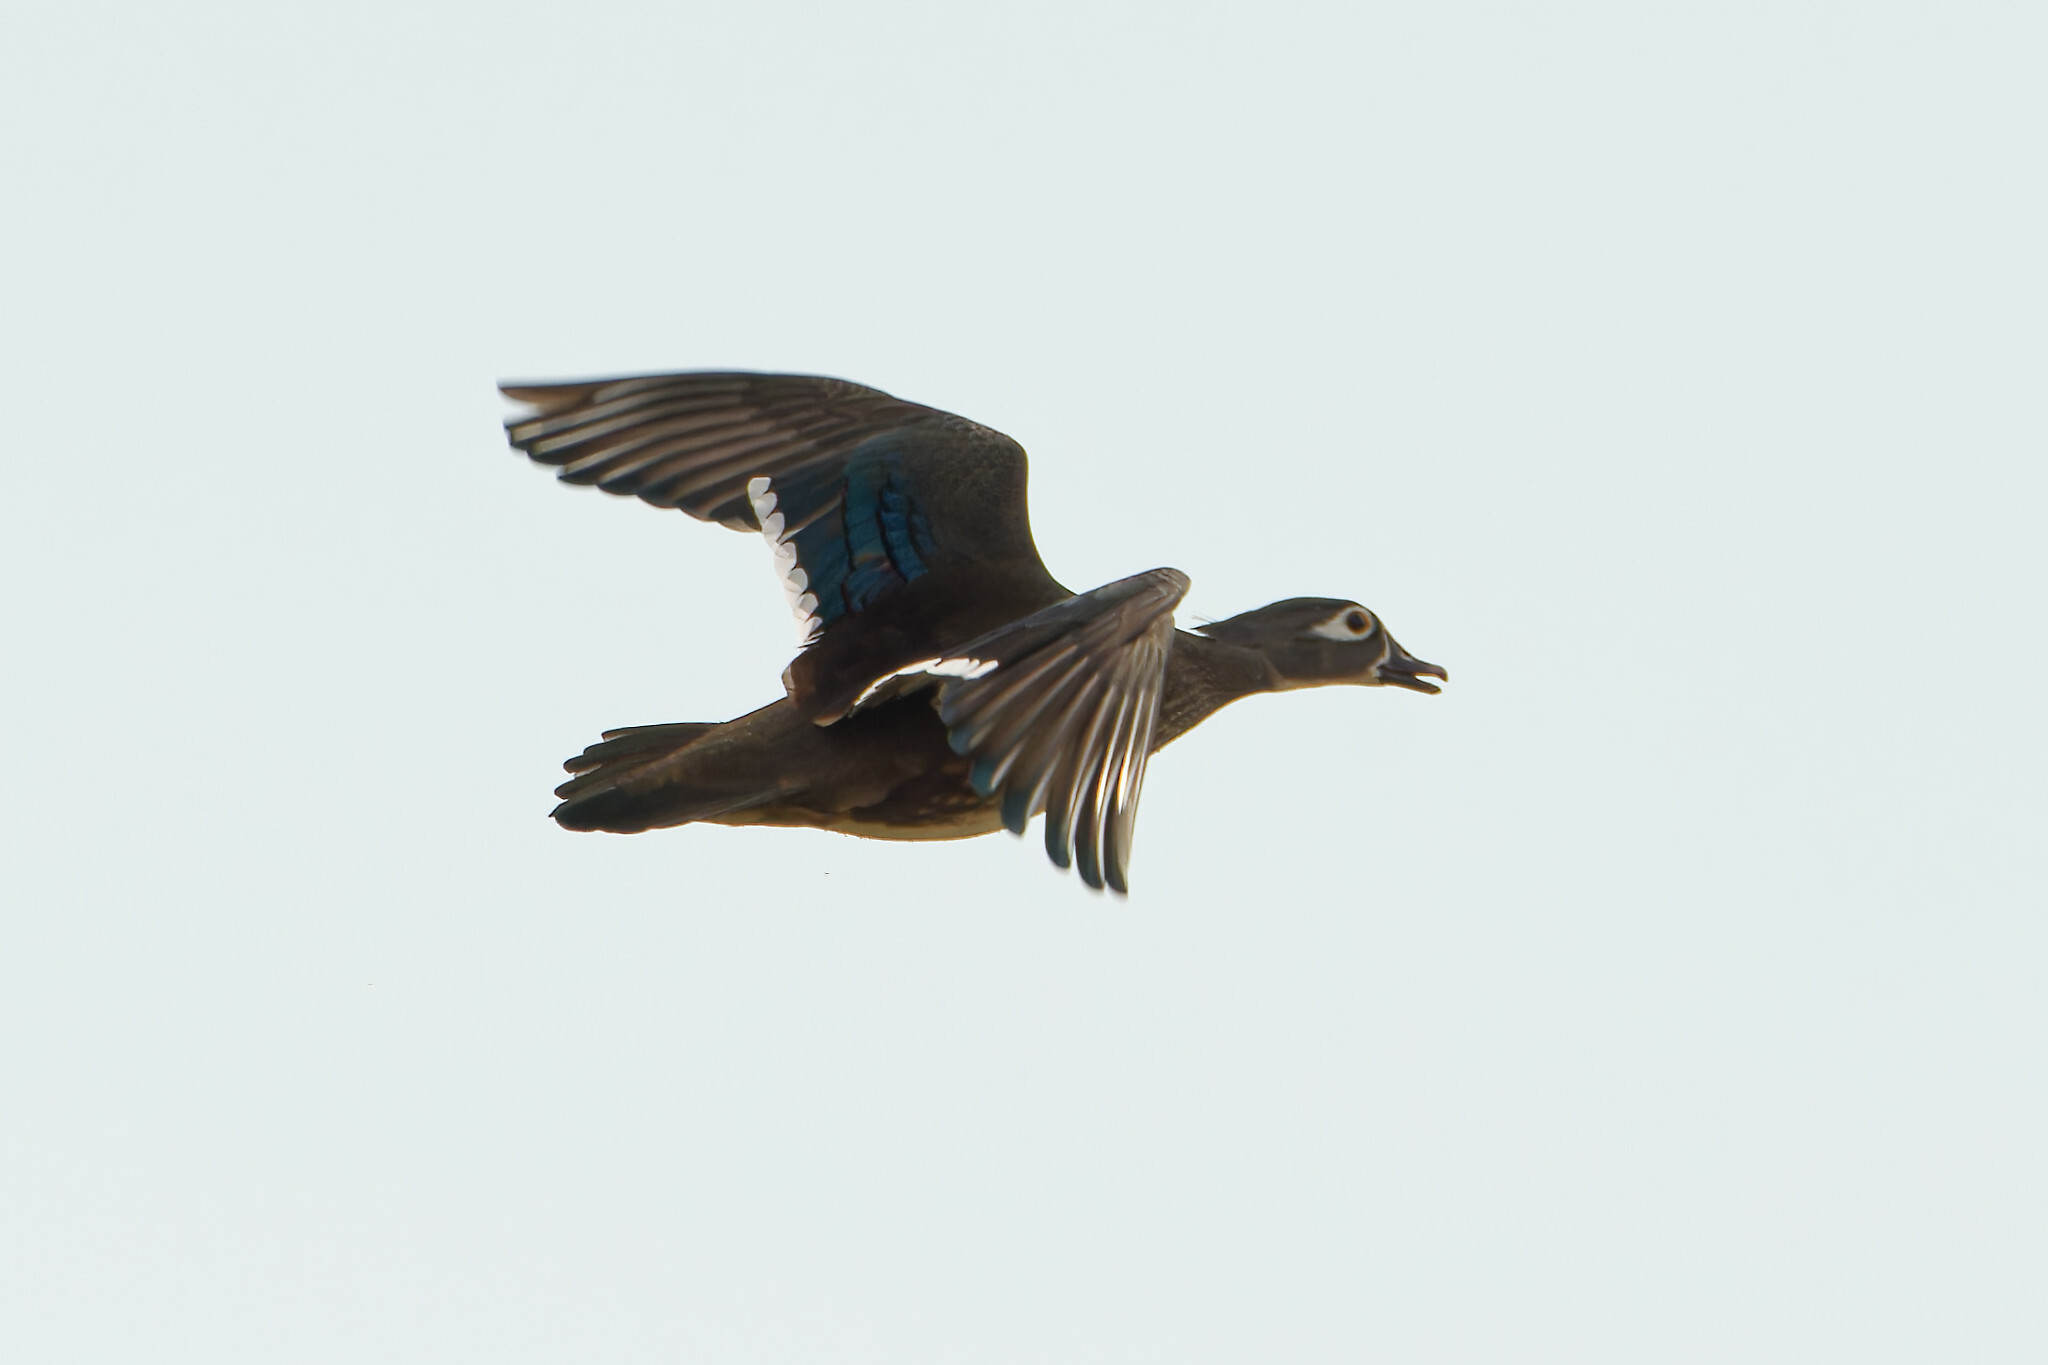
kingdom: Animalia
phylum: Chordata
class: Aves
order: Anseriformes
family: Anatidae
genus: Aix
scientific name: Aix sponsa
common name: Wood duck
